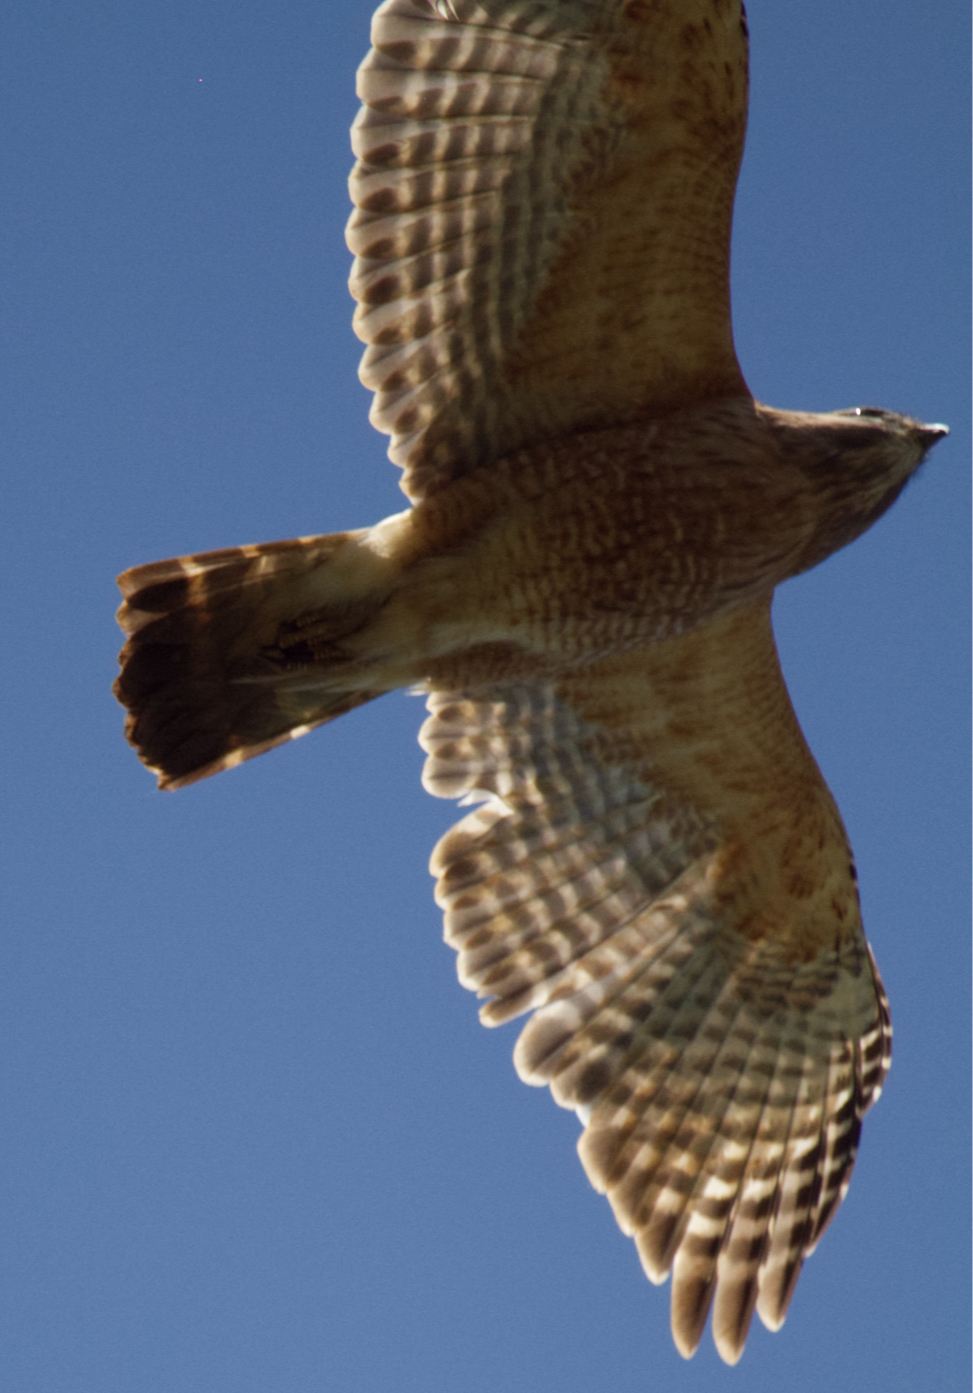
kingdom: Animalia
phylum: Chordata
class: Aves
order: Accipitriformes
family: Accipitridae
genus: Buteo
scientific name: Buteo lineatus
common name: Red-shouldered hawk
